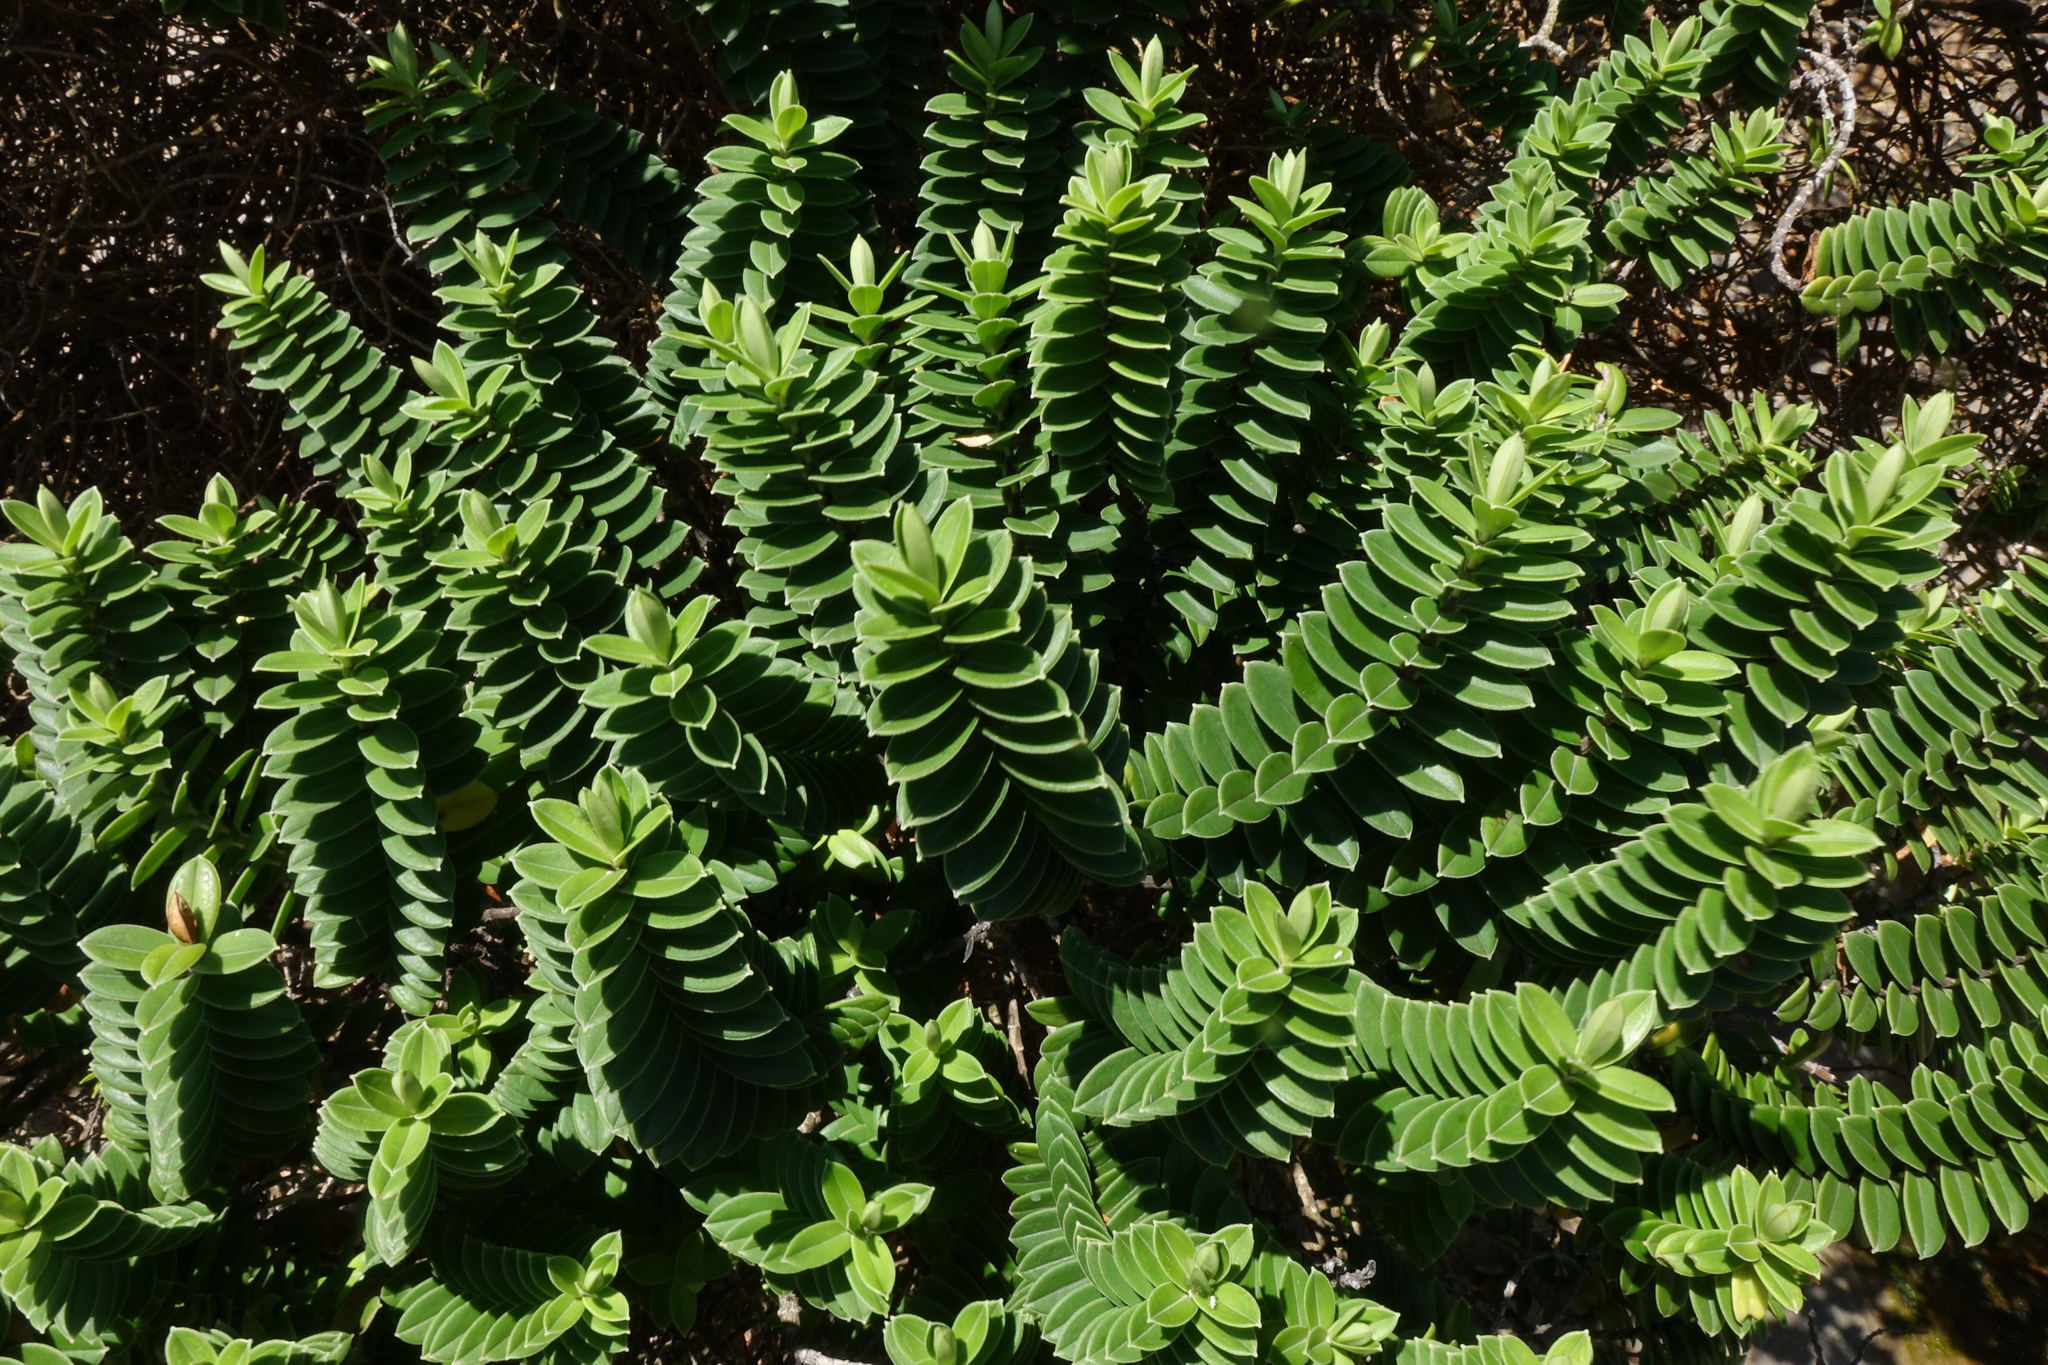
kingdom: Plantae
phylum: Tracheophyta
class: Magnoliopsida
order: Lamiales
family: Plantaginaceae
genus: Veronica
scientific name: Veronica elliptica
